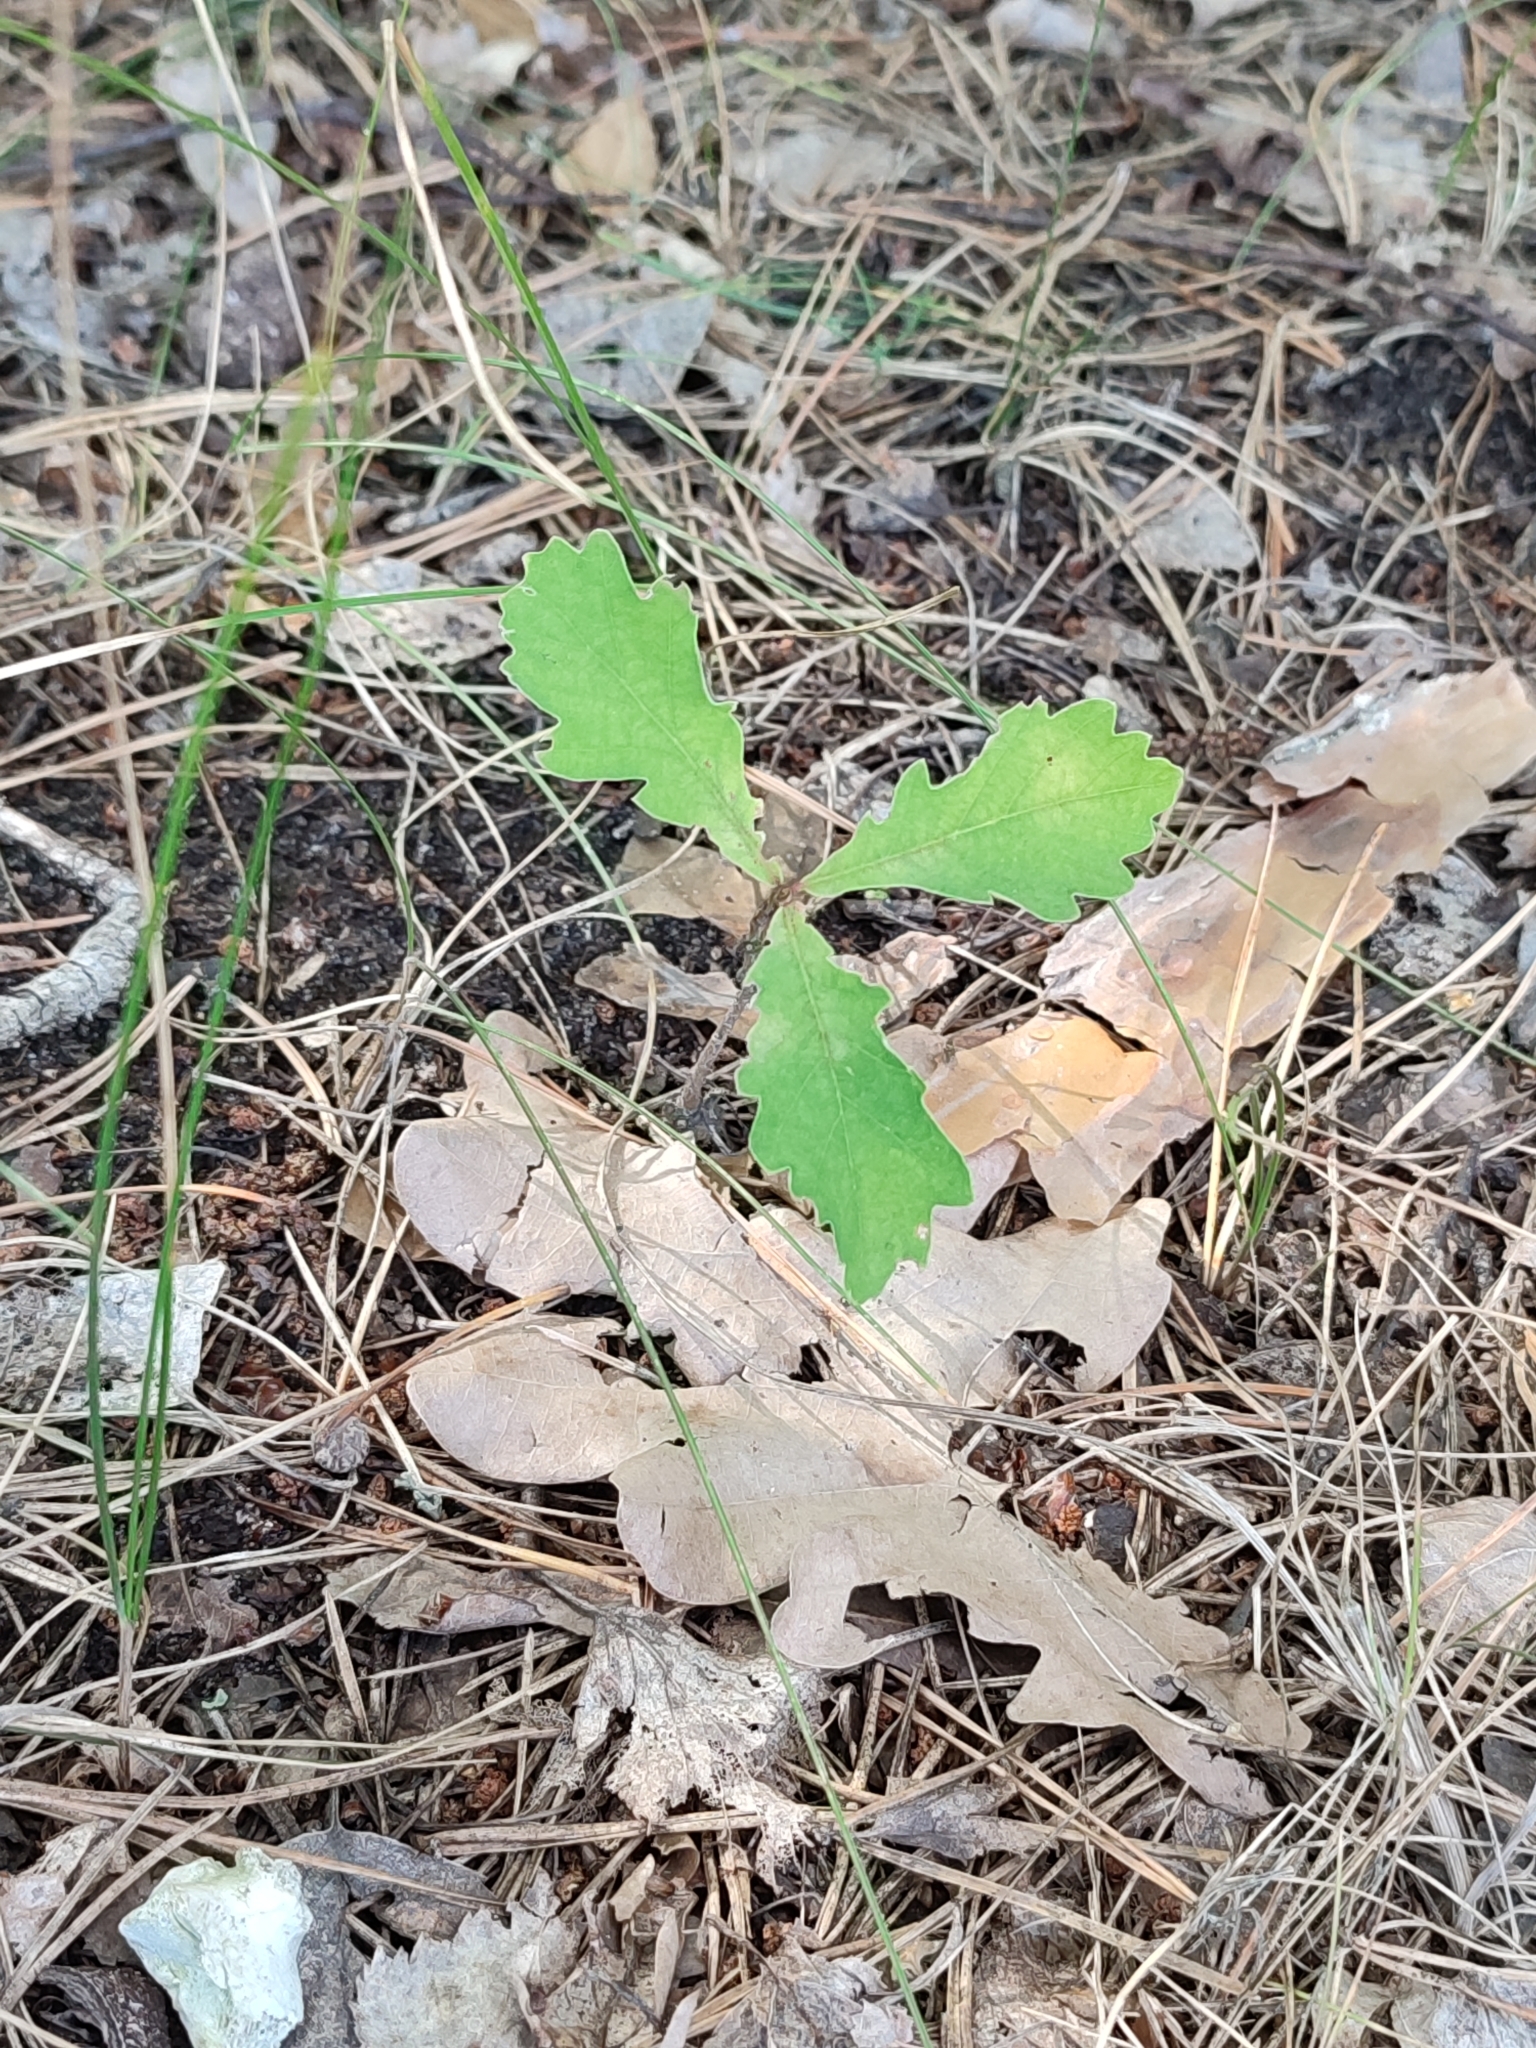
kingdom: Plantae
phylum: Tracheophyta
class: Magnoliopsida
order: Fagales
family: Fagaceae
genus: Quercus
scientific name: Quercus robur
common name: Pedunculate oak
